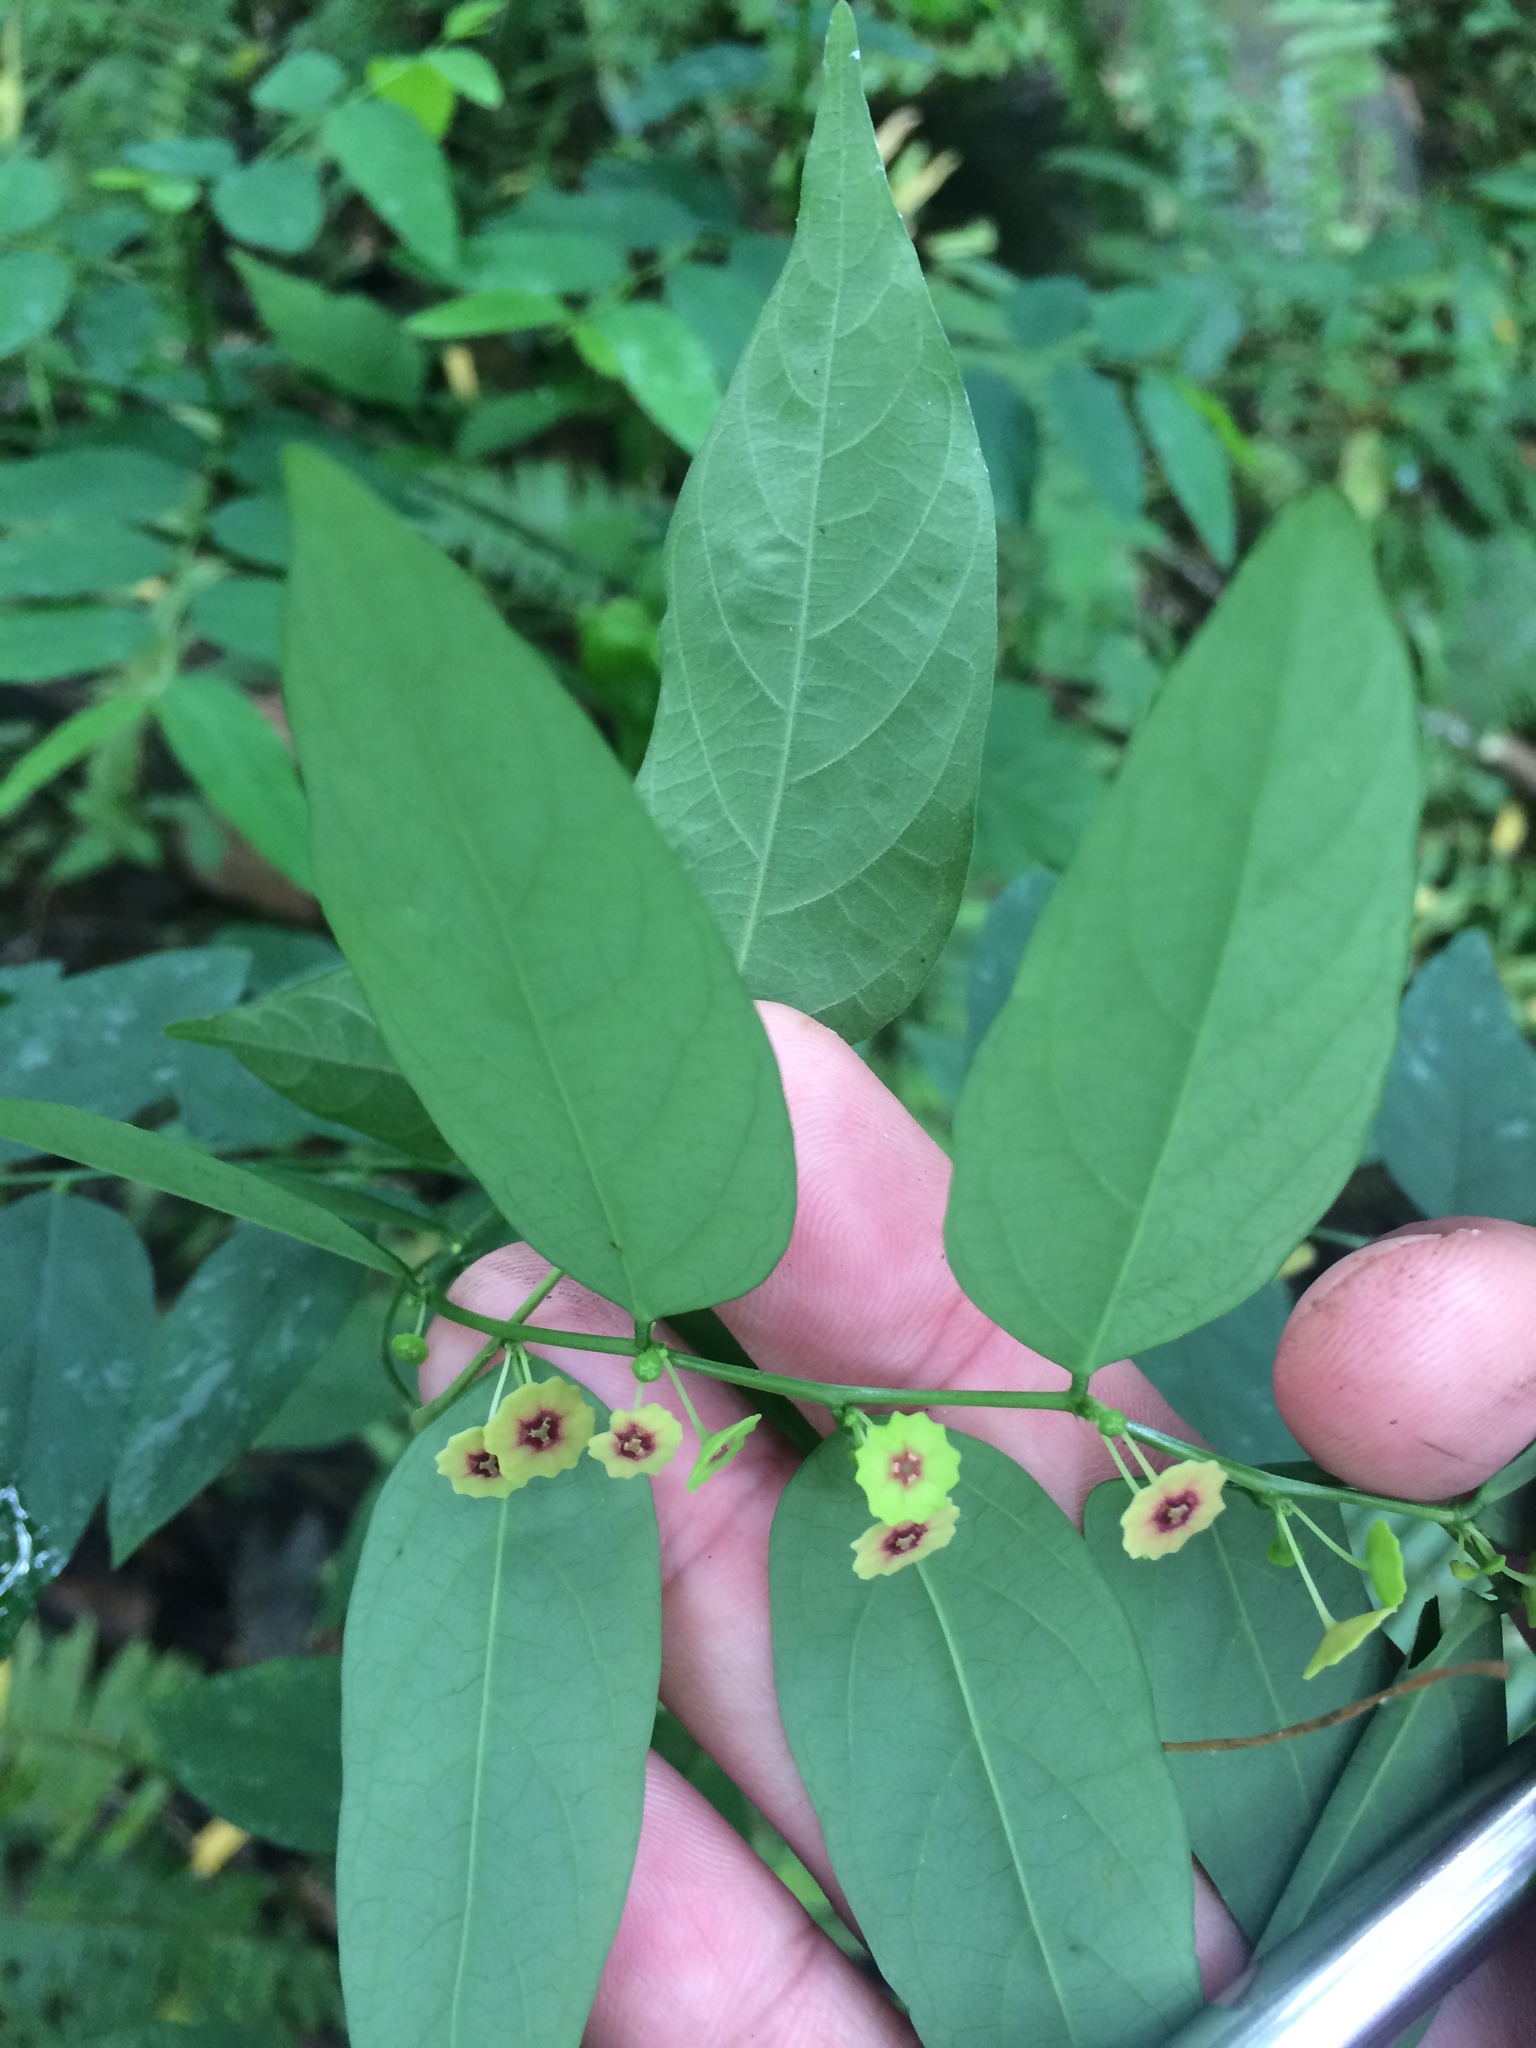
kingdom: Plantae
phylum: Tracheophyta
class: Magnoliopsida
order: Malpighiales
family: Phyllanthaceae
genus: Breynia
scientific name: Breynia androgyna
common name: Star gooseberry
